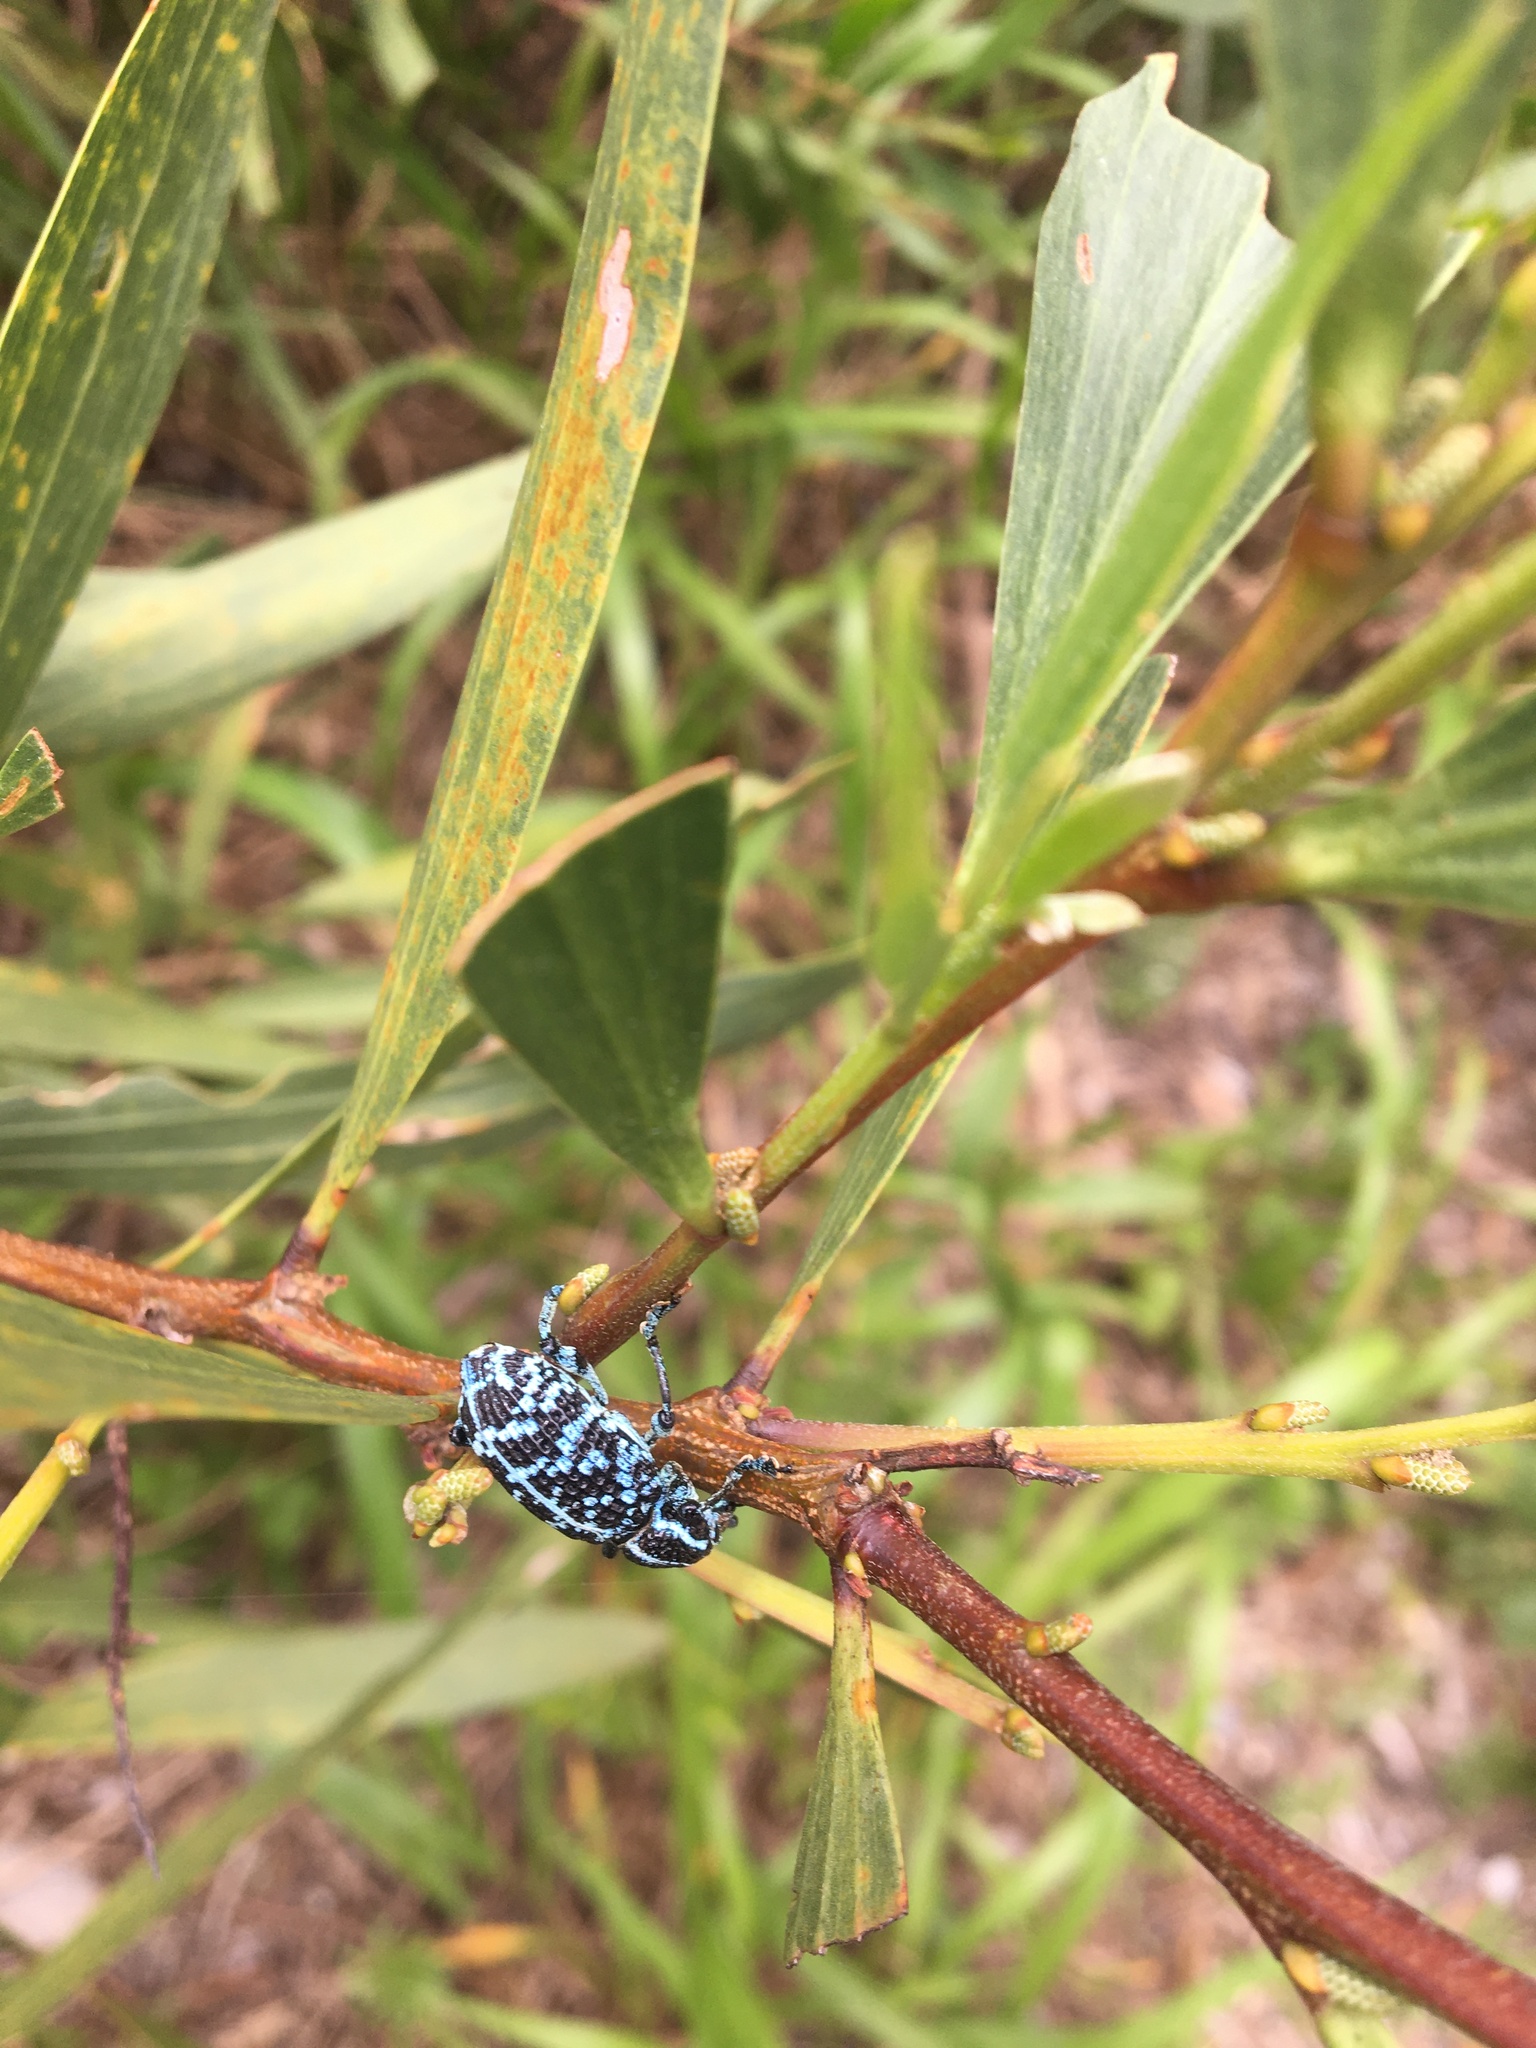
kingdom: Animalia
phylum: Arthropoda
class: Insecta
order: Coleoptera
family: Curculionidae
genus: Chrysolopus
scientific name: Chrysolopus spectabilis
